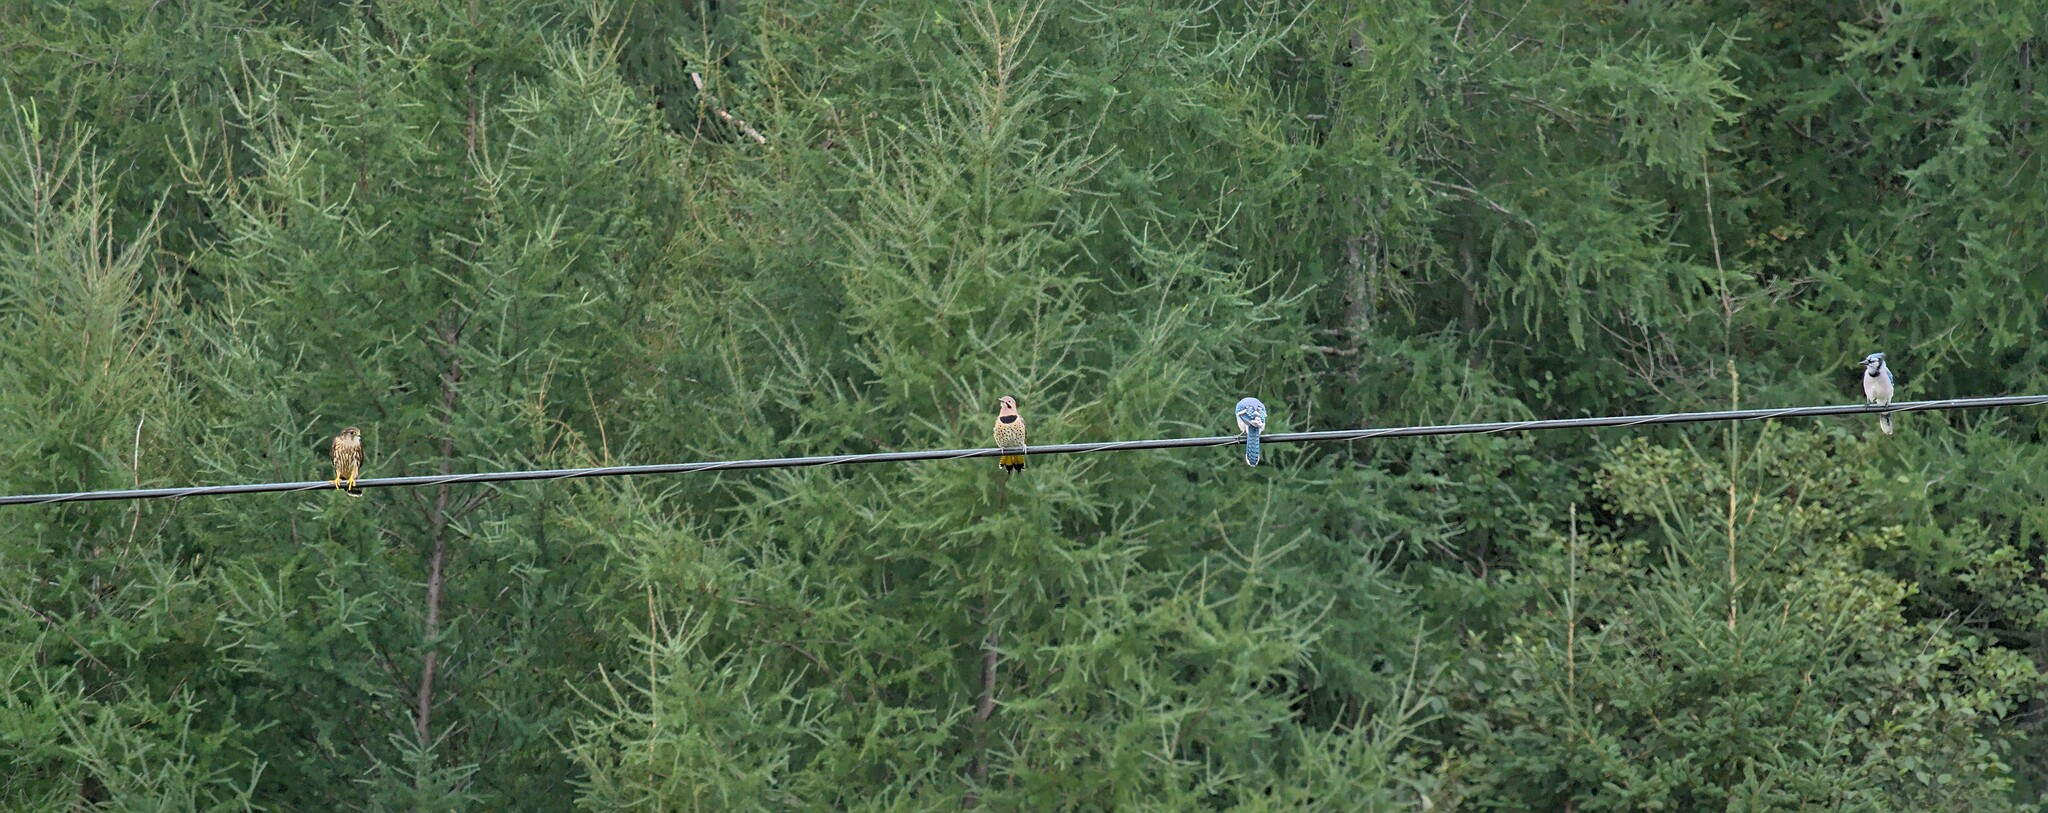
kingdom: Animalia
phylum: Chordata
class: Aves
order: Piciformes
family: Picidae
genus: Colaptes
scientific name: Colaptes auratus
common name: Northern flicker
